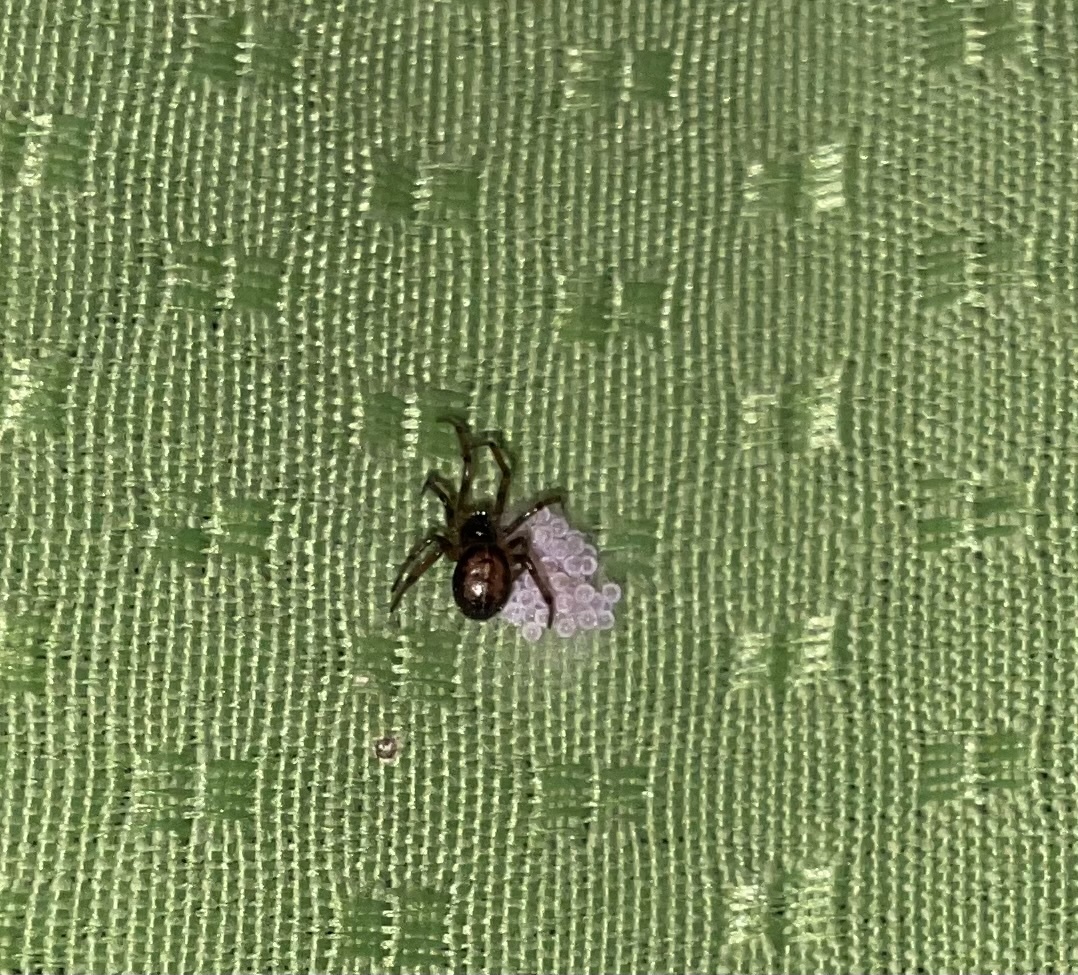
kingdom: Animalia
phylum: Arthropoda
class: Arachnida
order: Araneae
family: Theridiidae
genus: Steatoda
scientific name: Steatoda bipunctata
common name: False widow
